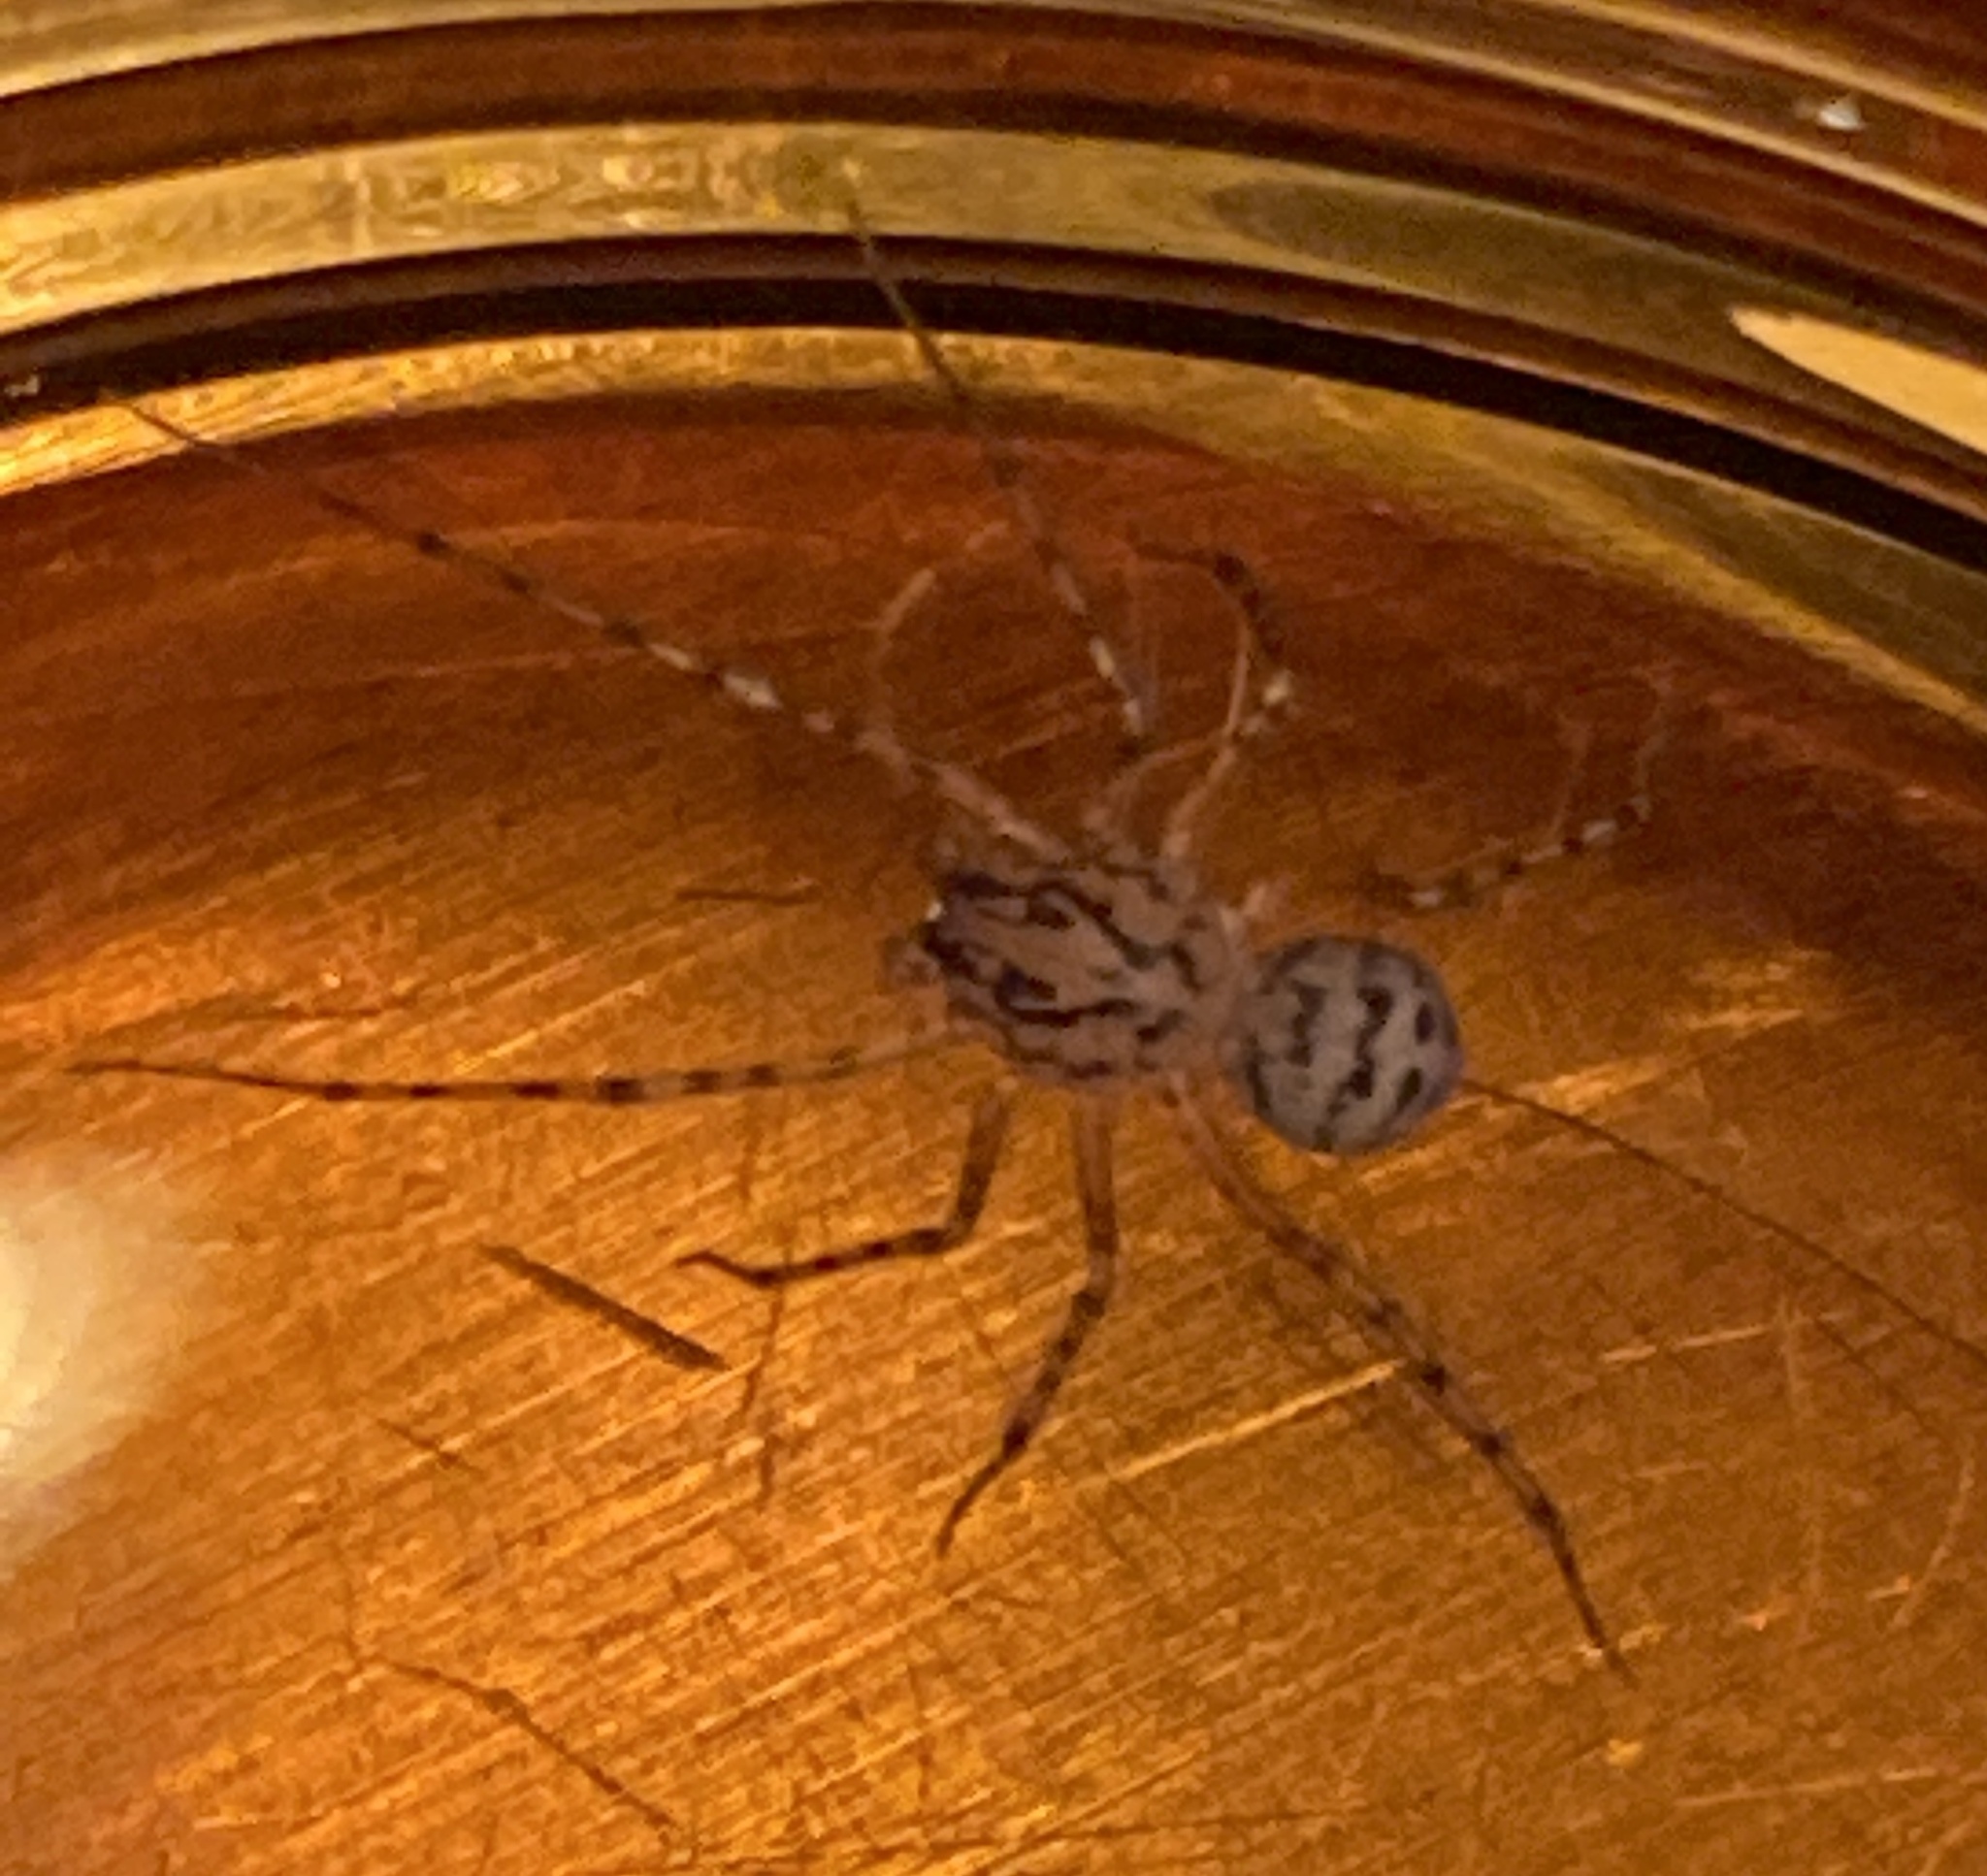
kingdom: Animalia
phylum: Arthropoda
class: Arachnida
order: Araneae
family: Scytodidae
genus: Scytodes
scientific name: Scytodes thoracica
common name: Spitting spider
